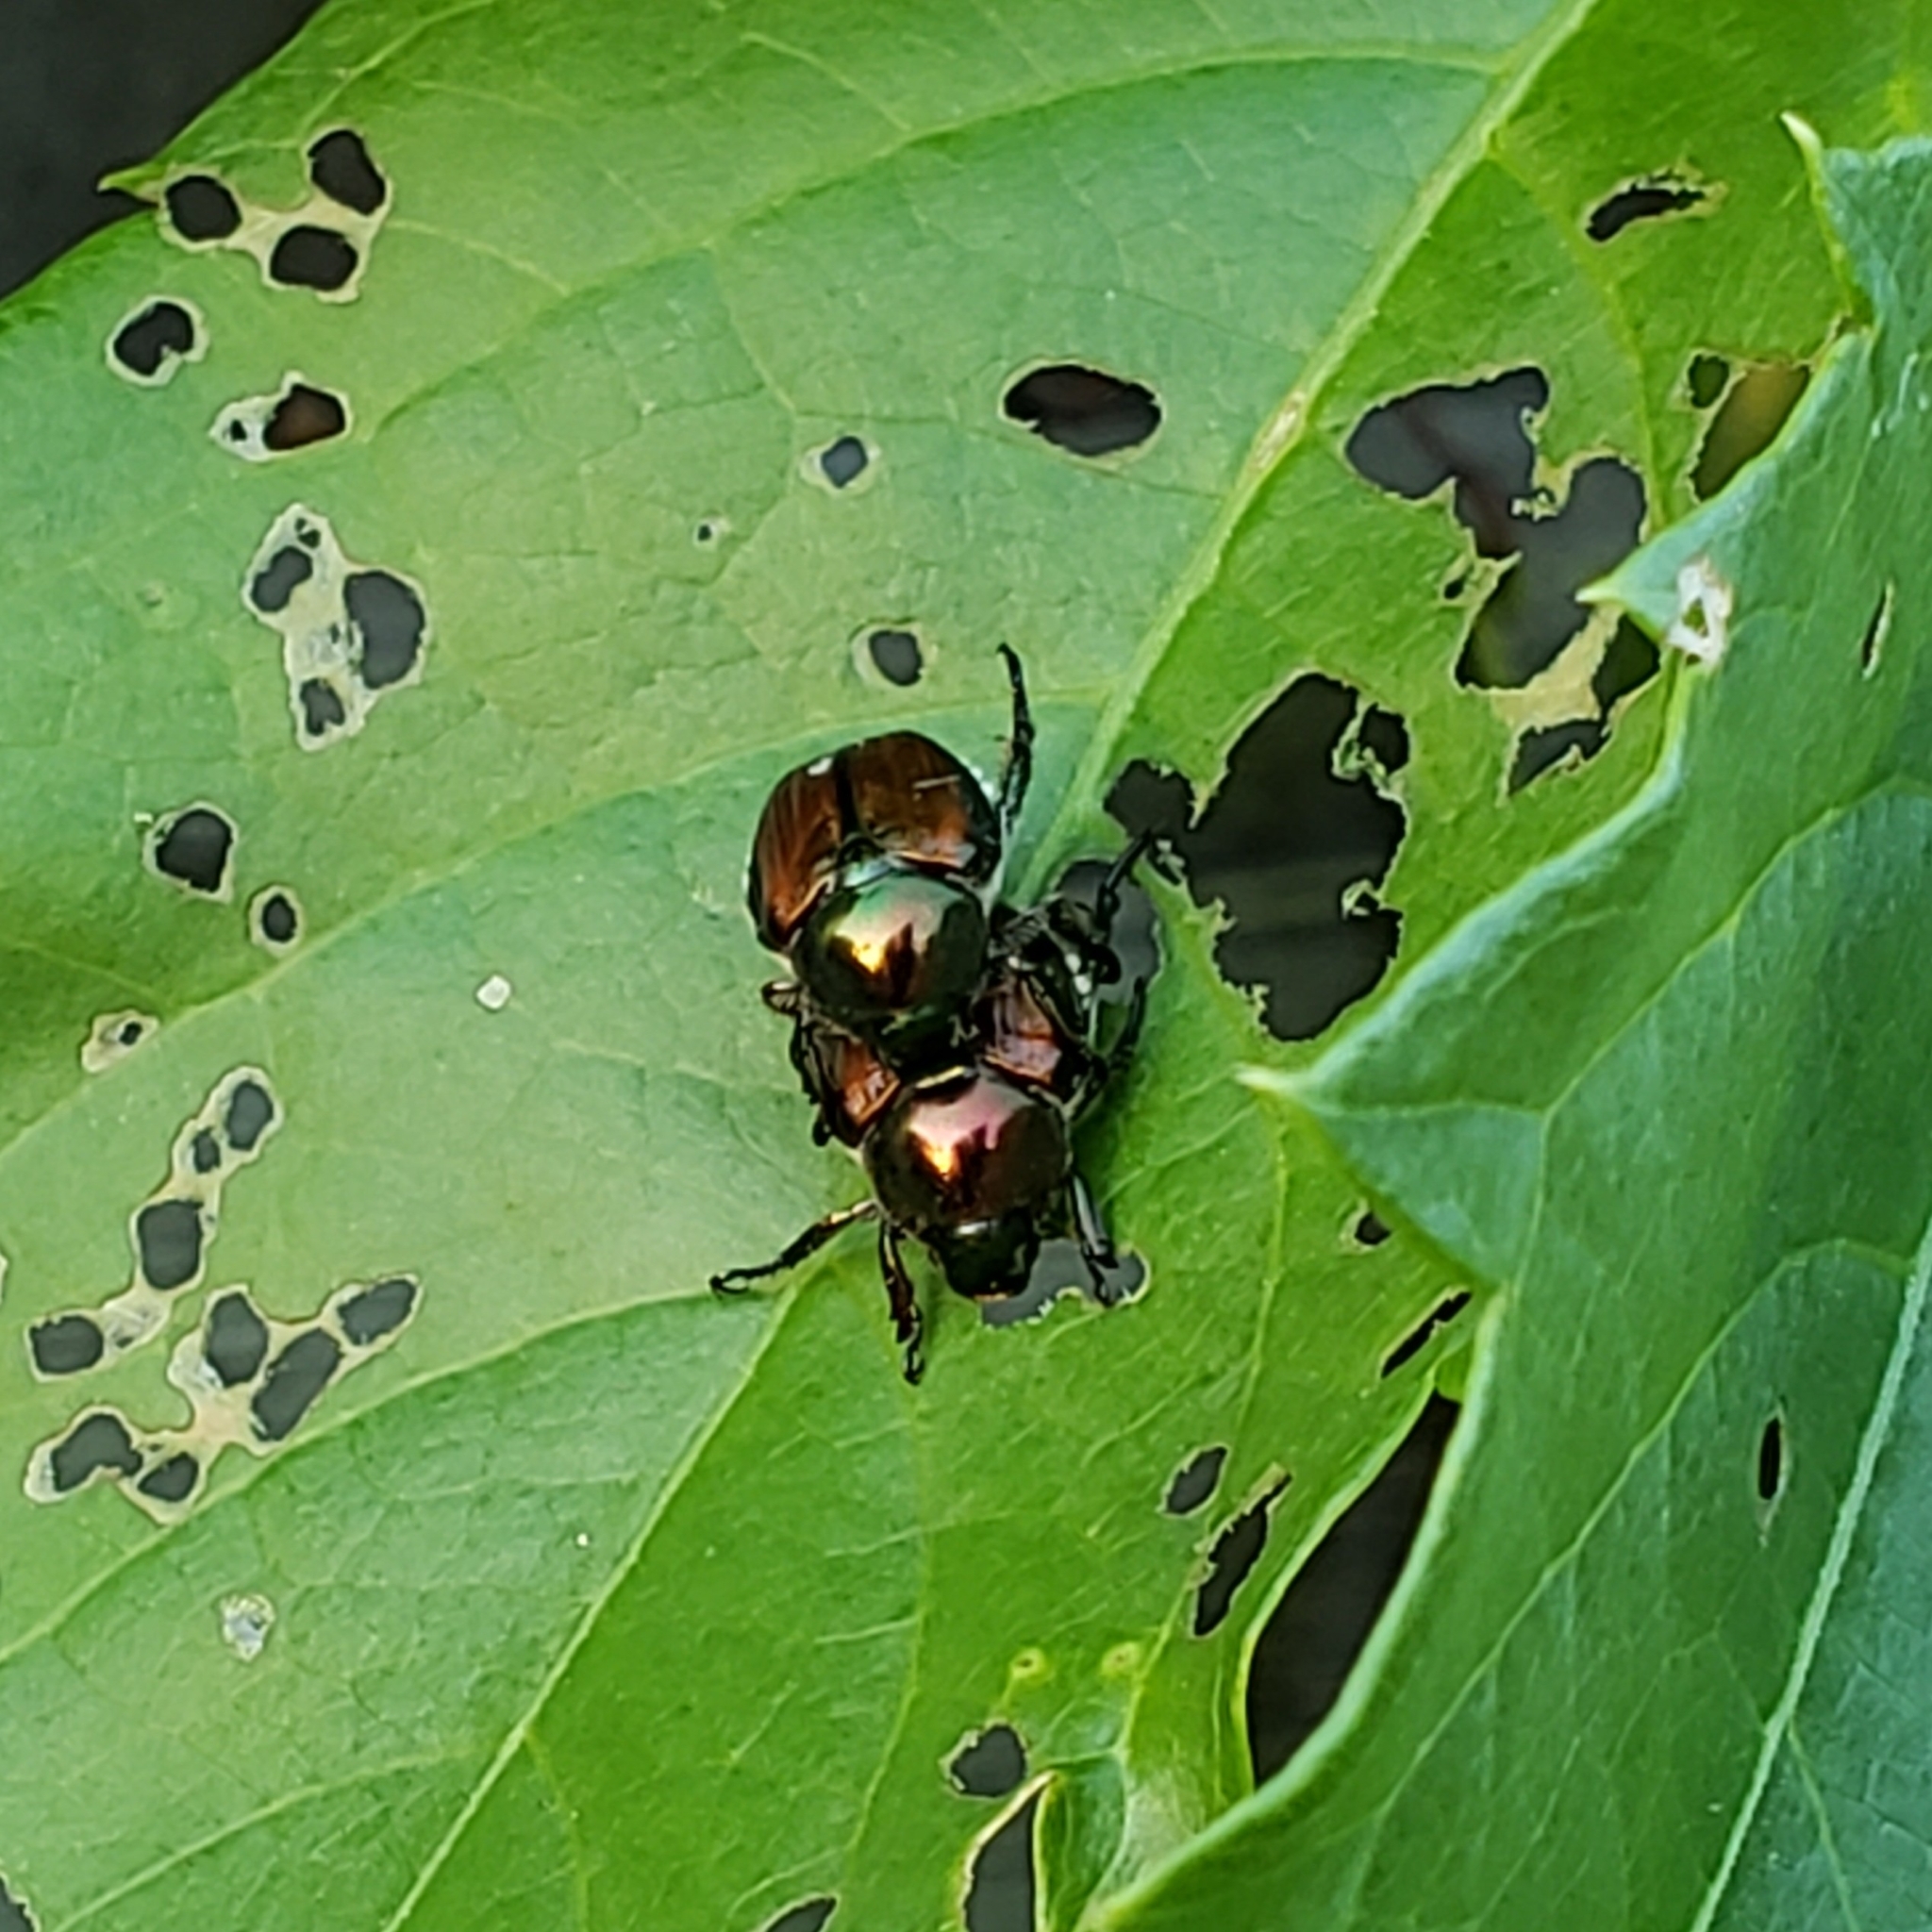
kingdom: Animalia
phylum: Arthropoda
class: Insecta
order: Coleoptera
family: Scarabaeidae
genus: Popillia
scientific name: Popillia japonica
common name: Japanese beetle
